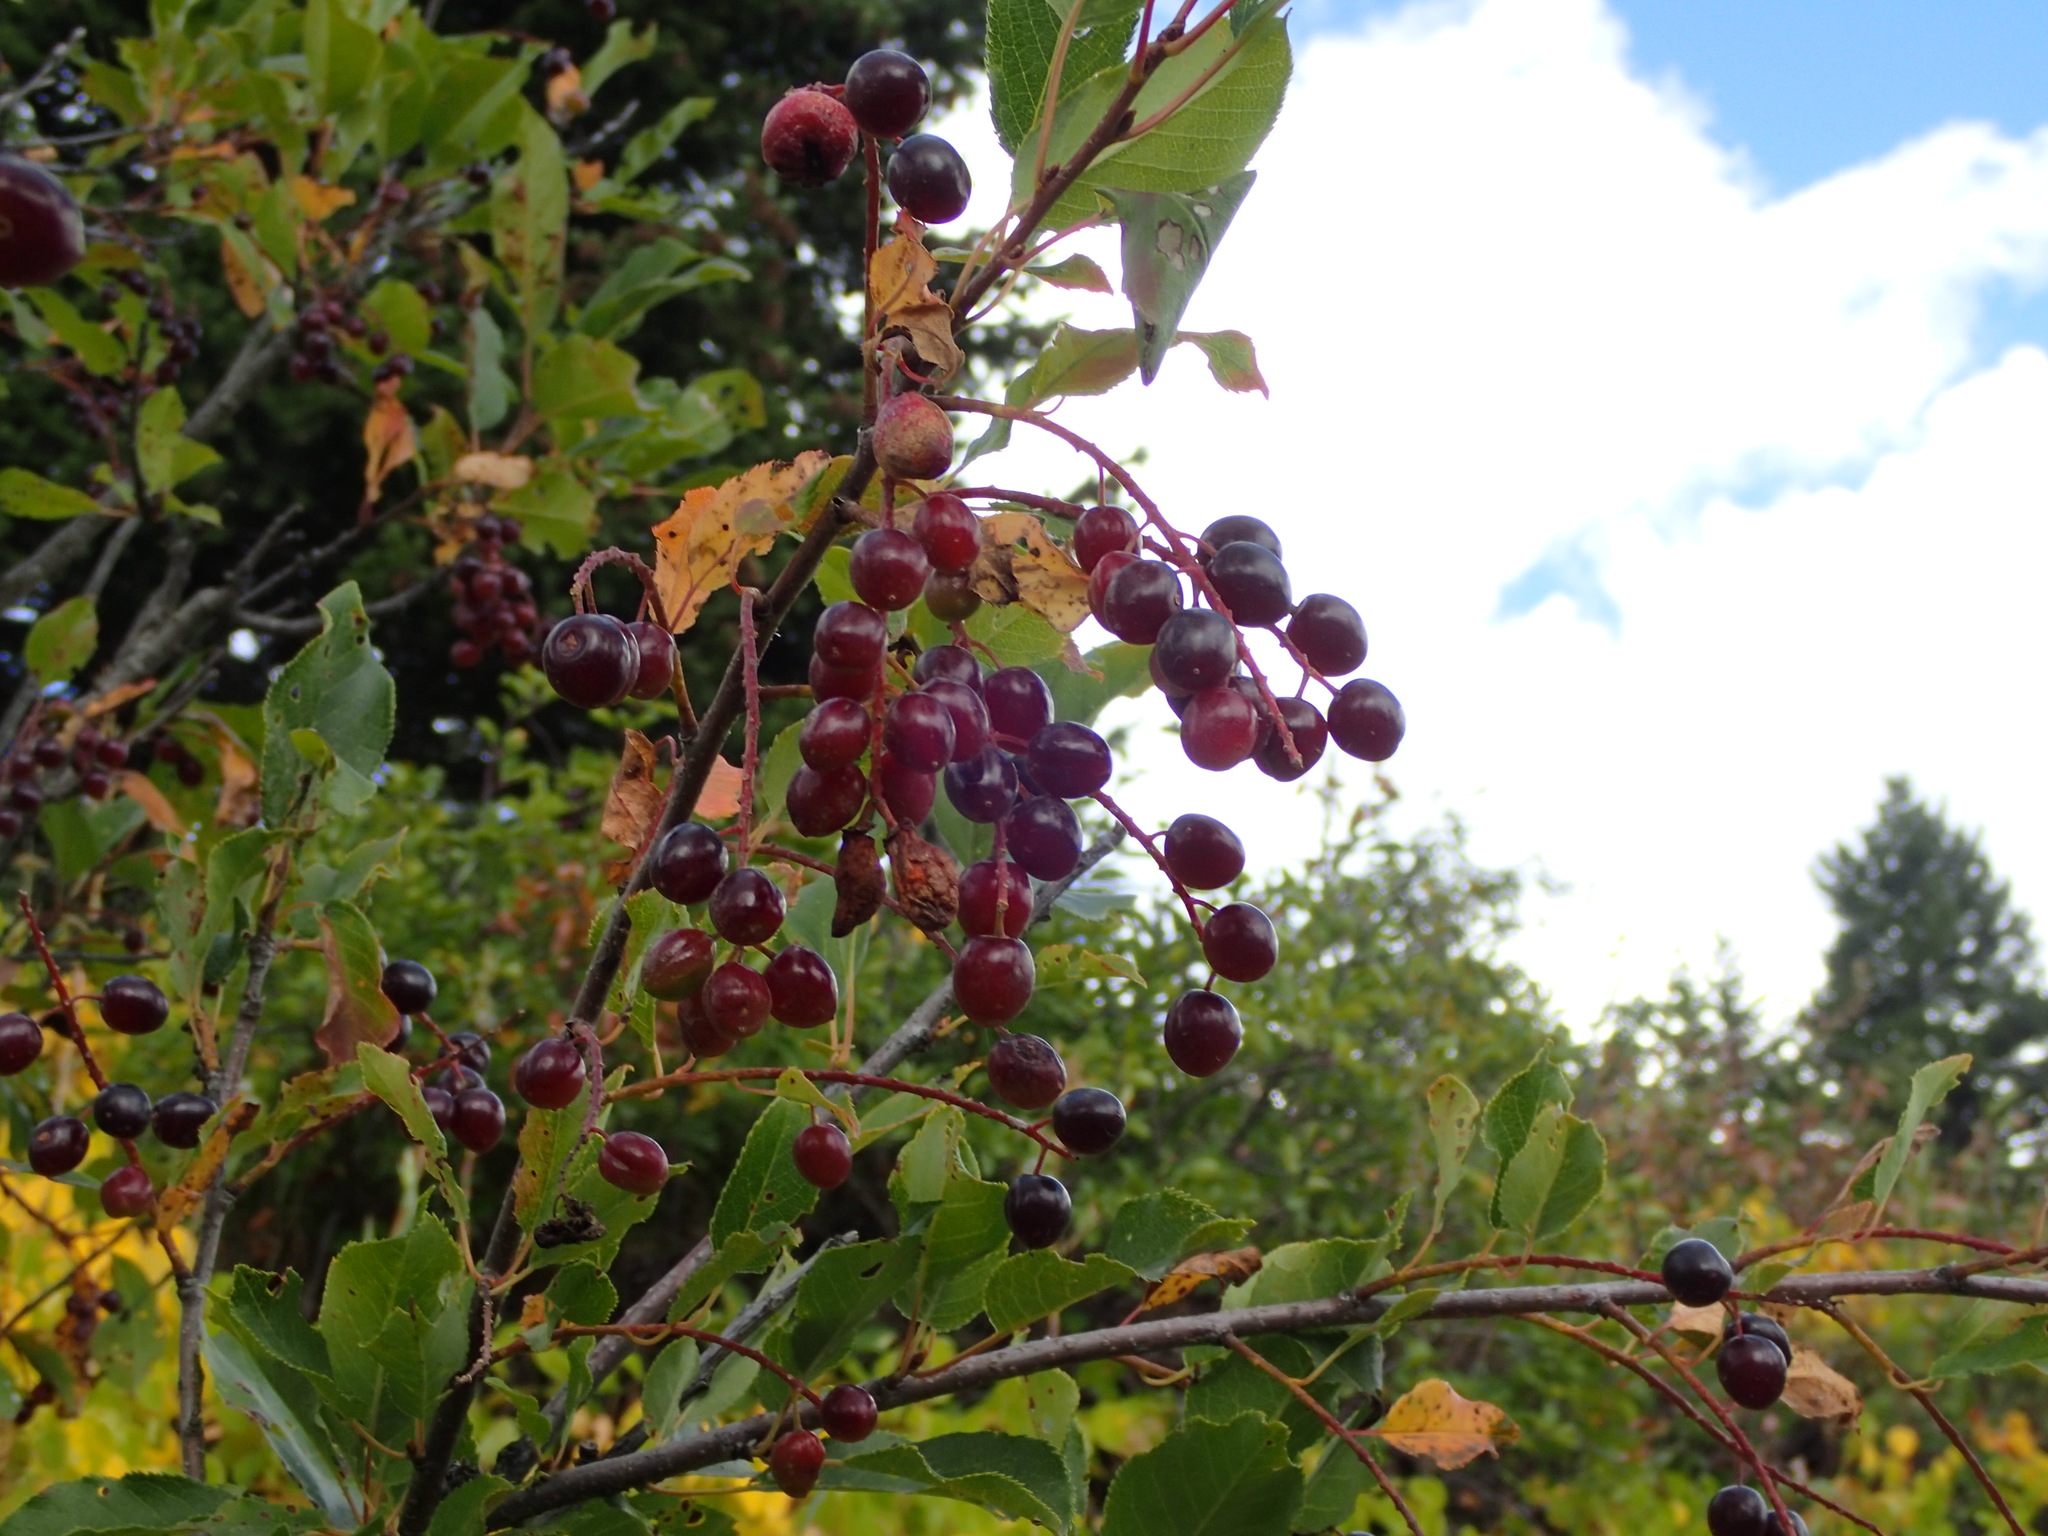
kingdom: Plantae
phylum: Tracheophyta
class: Magnoliopsida
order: Rosales
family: Rosaceae
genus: Prunus
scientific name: Prunus virginiana
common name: Chokecherry
